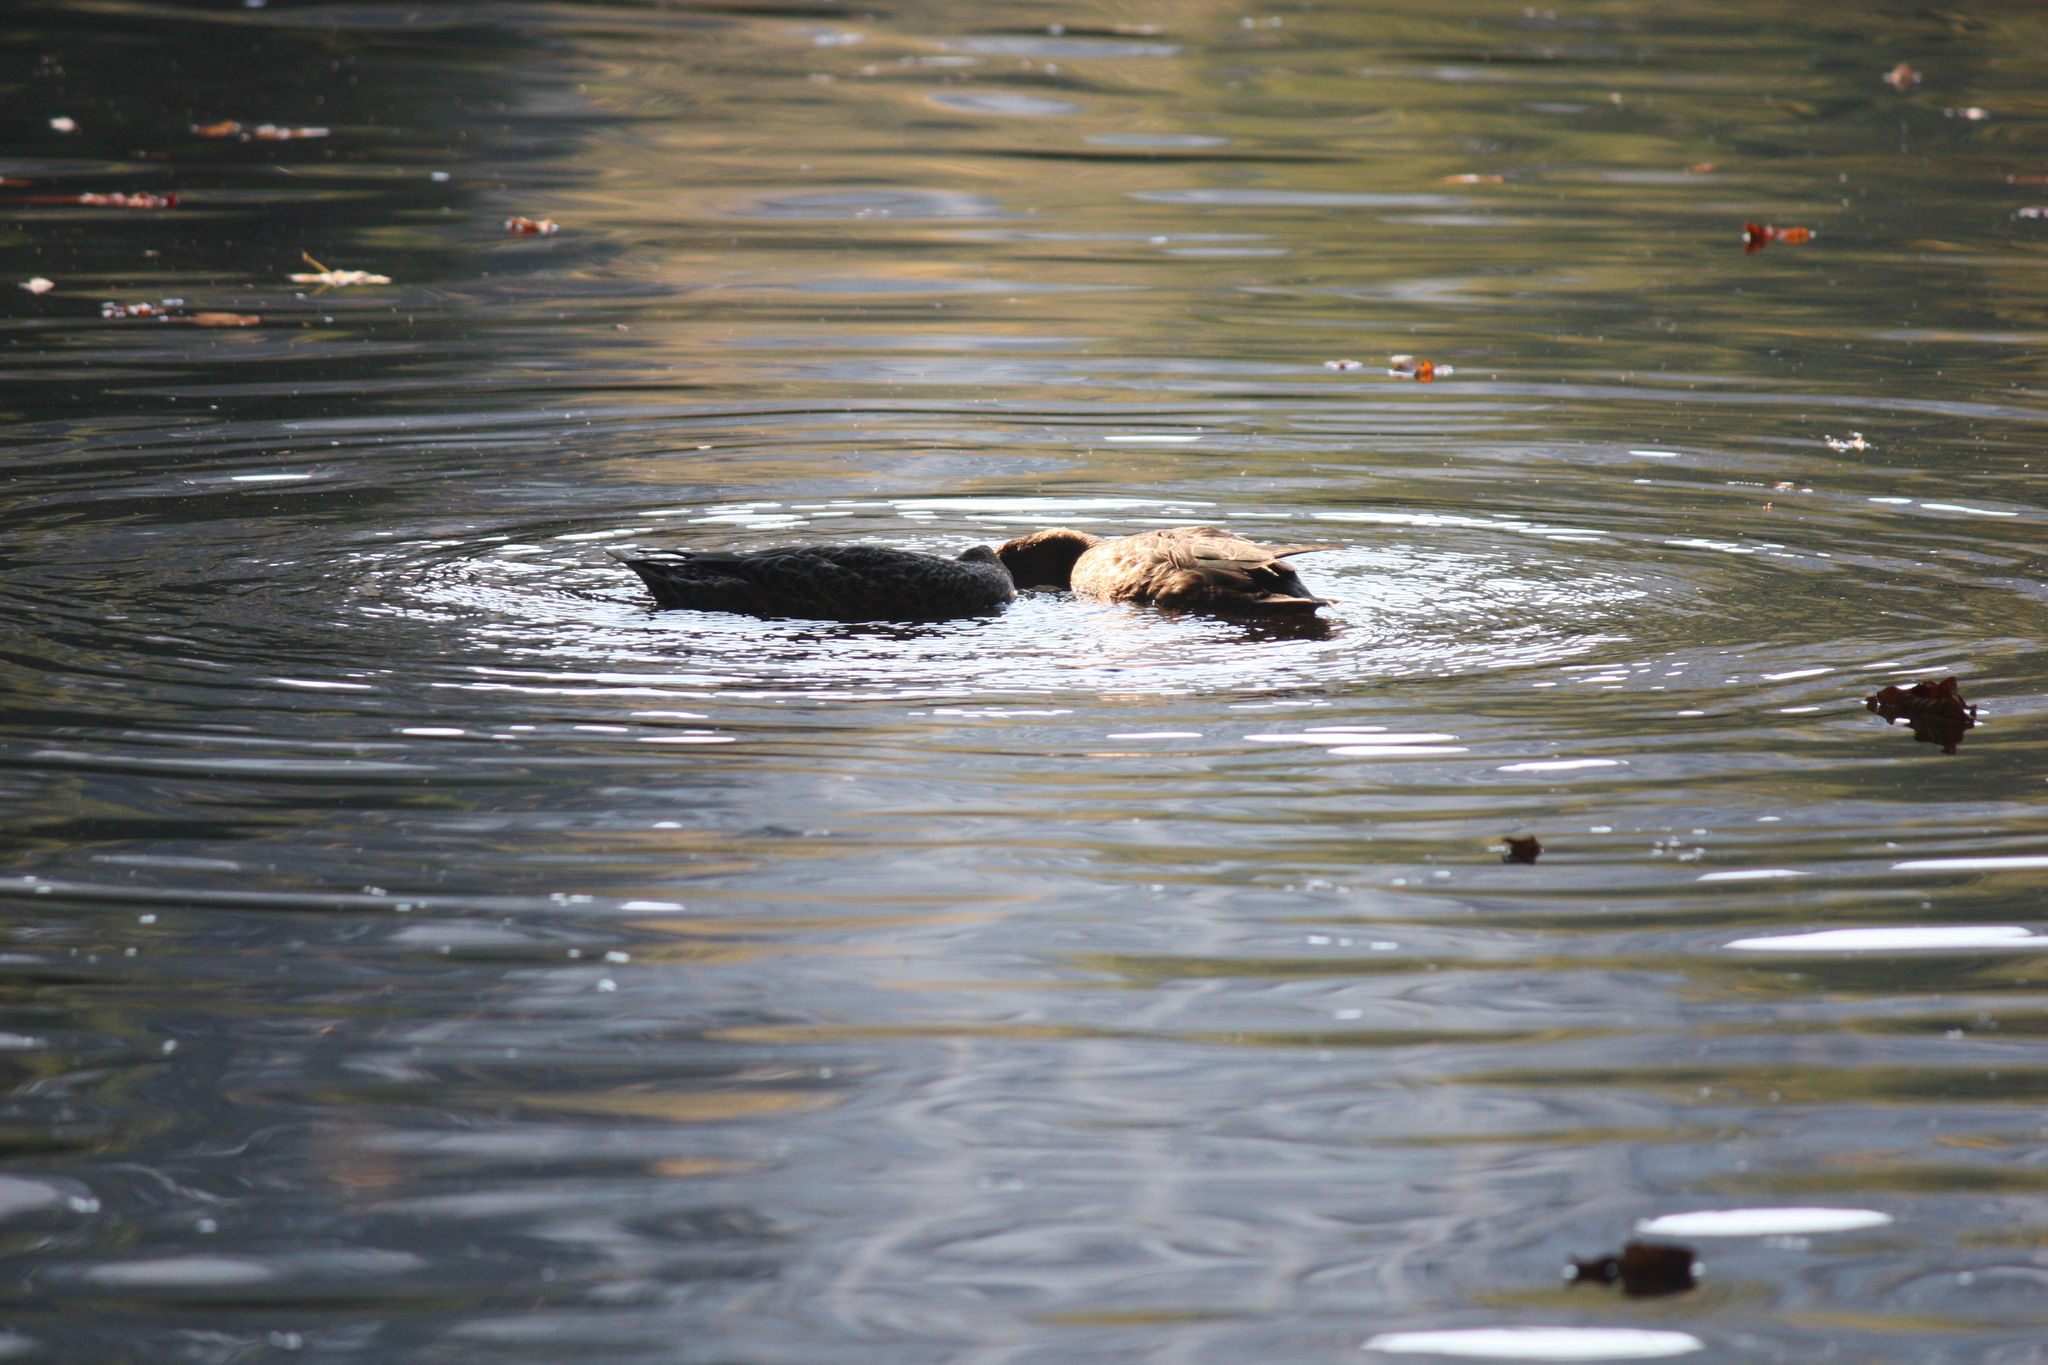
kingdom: Animalia
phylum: Chordata
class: Aves
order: Anseriformes
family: Anatidae
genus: Spatula
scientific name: Spatula clypeata
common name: Northern shoveler
